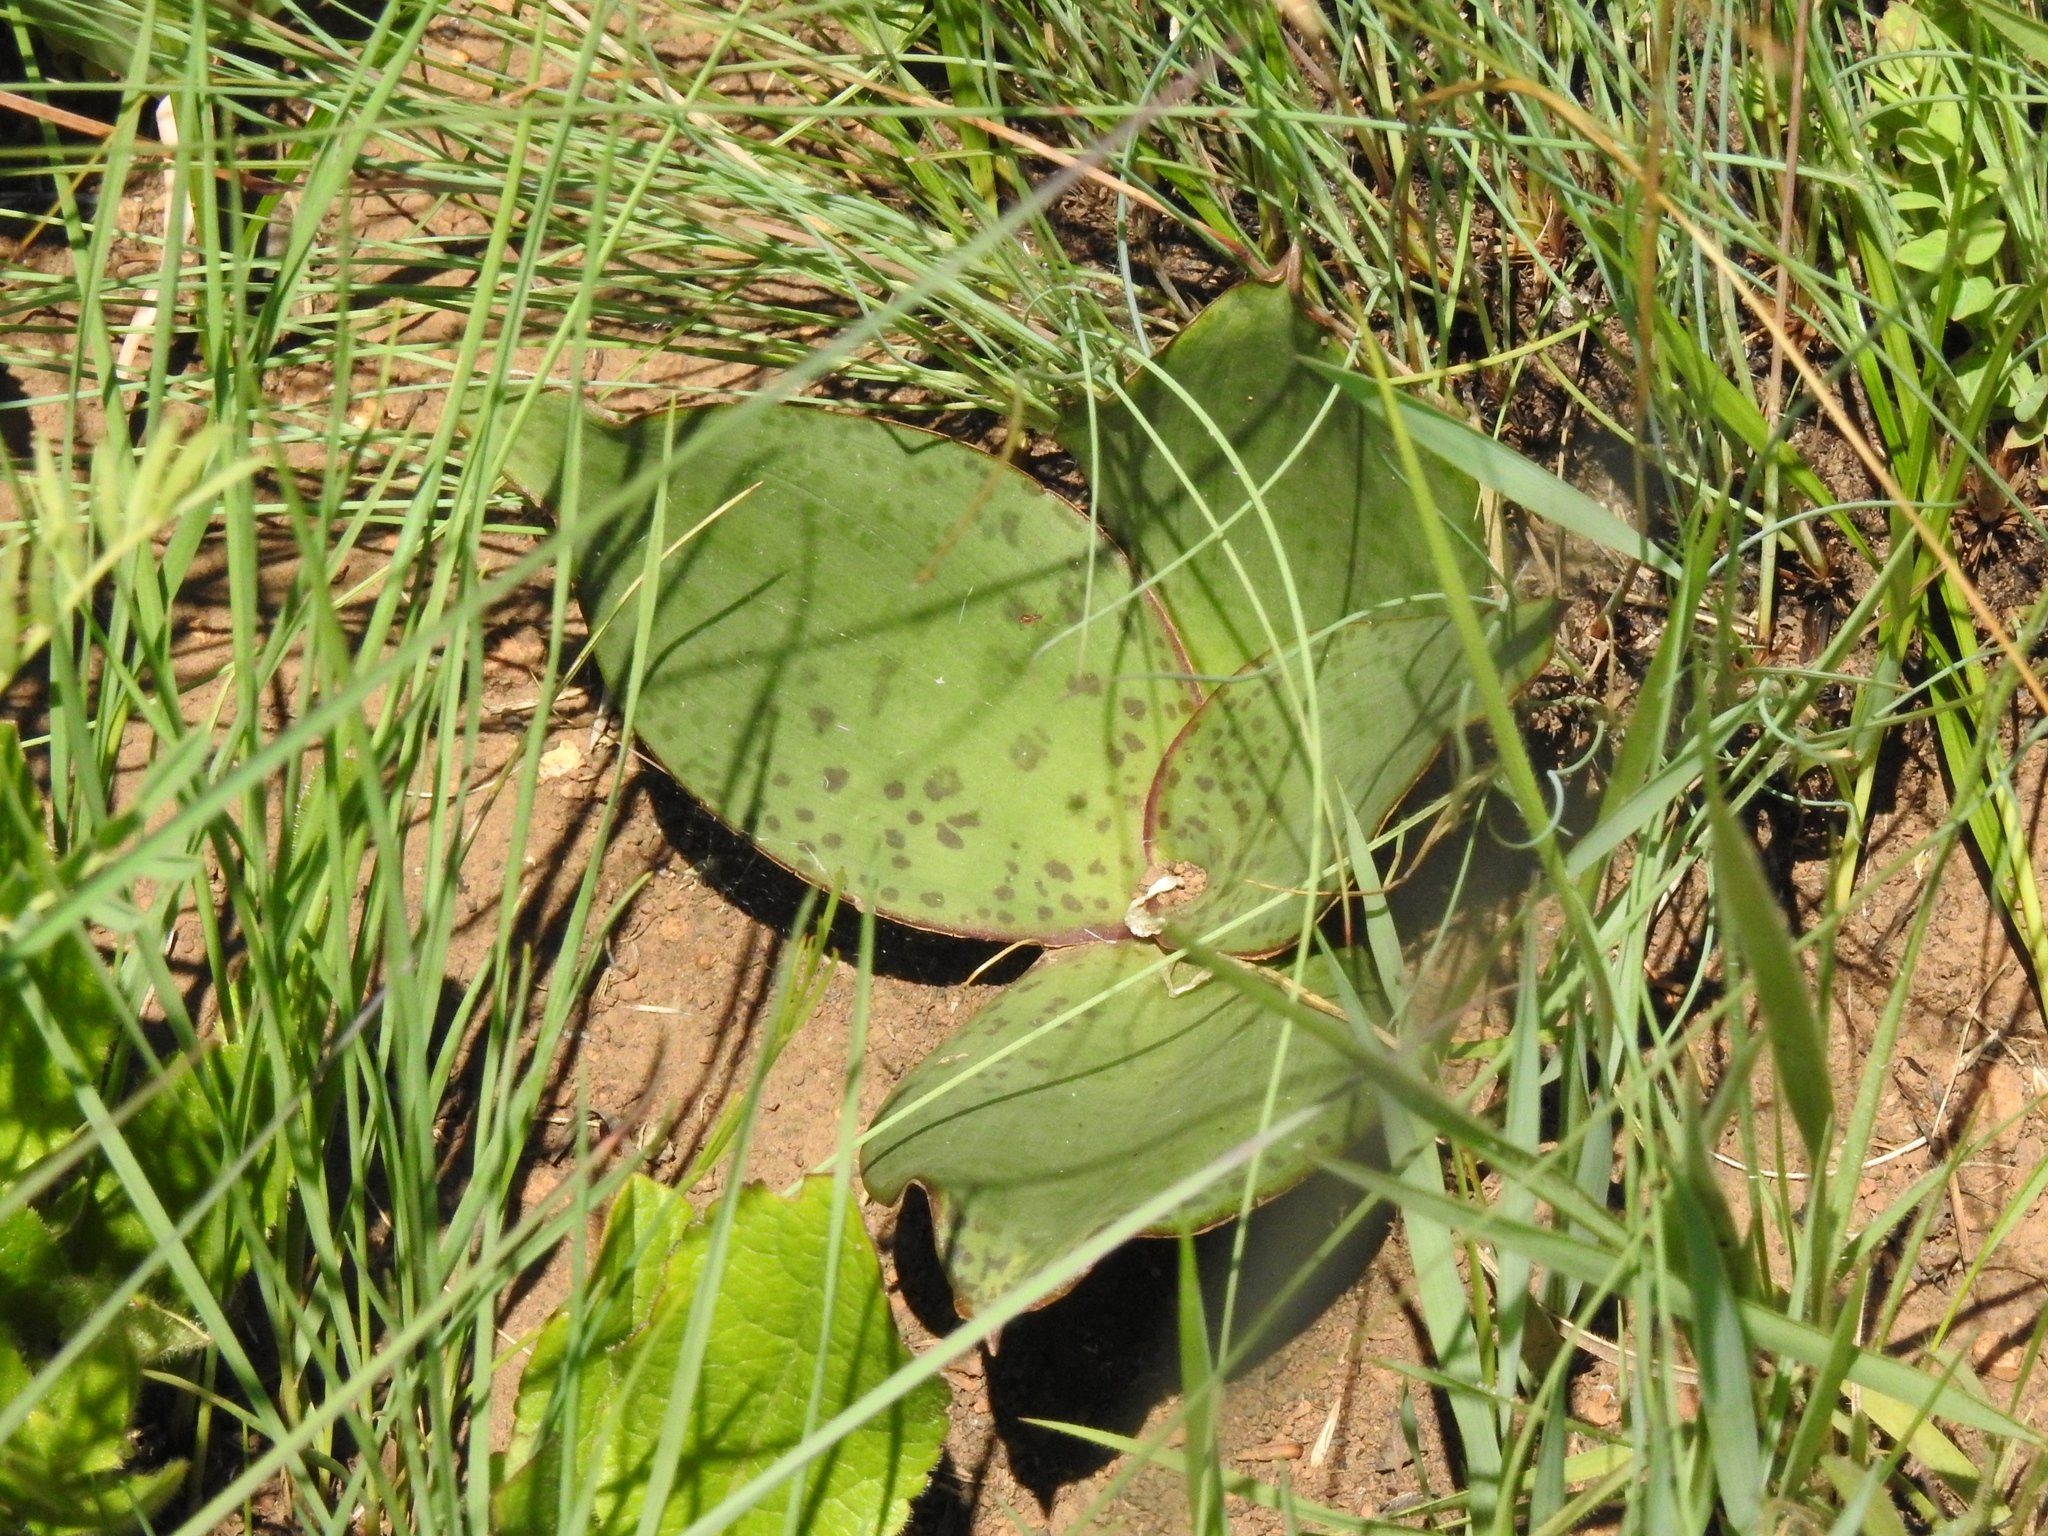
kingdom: Plantae
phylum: Tracheophyta
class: Liliopsida
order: Asparagales
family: Asparagaceae
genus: Ledebouria
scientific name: Ledebouria ovatifolia
